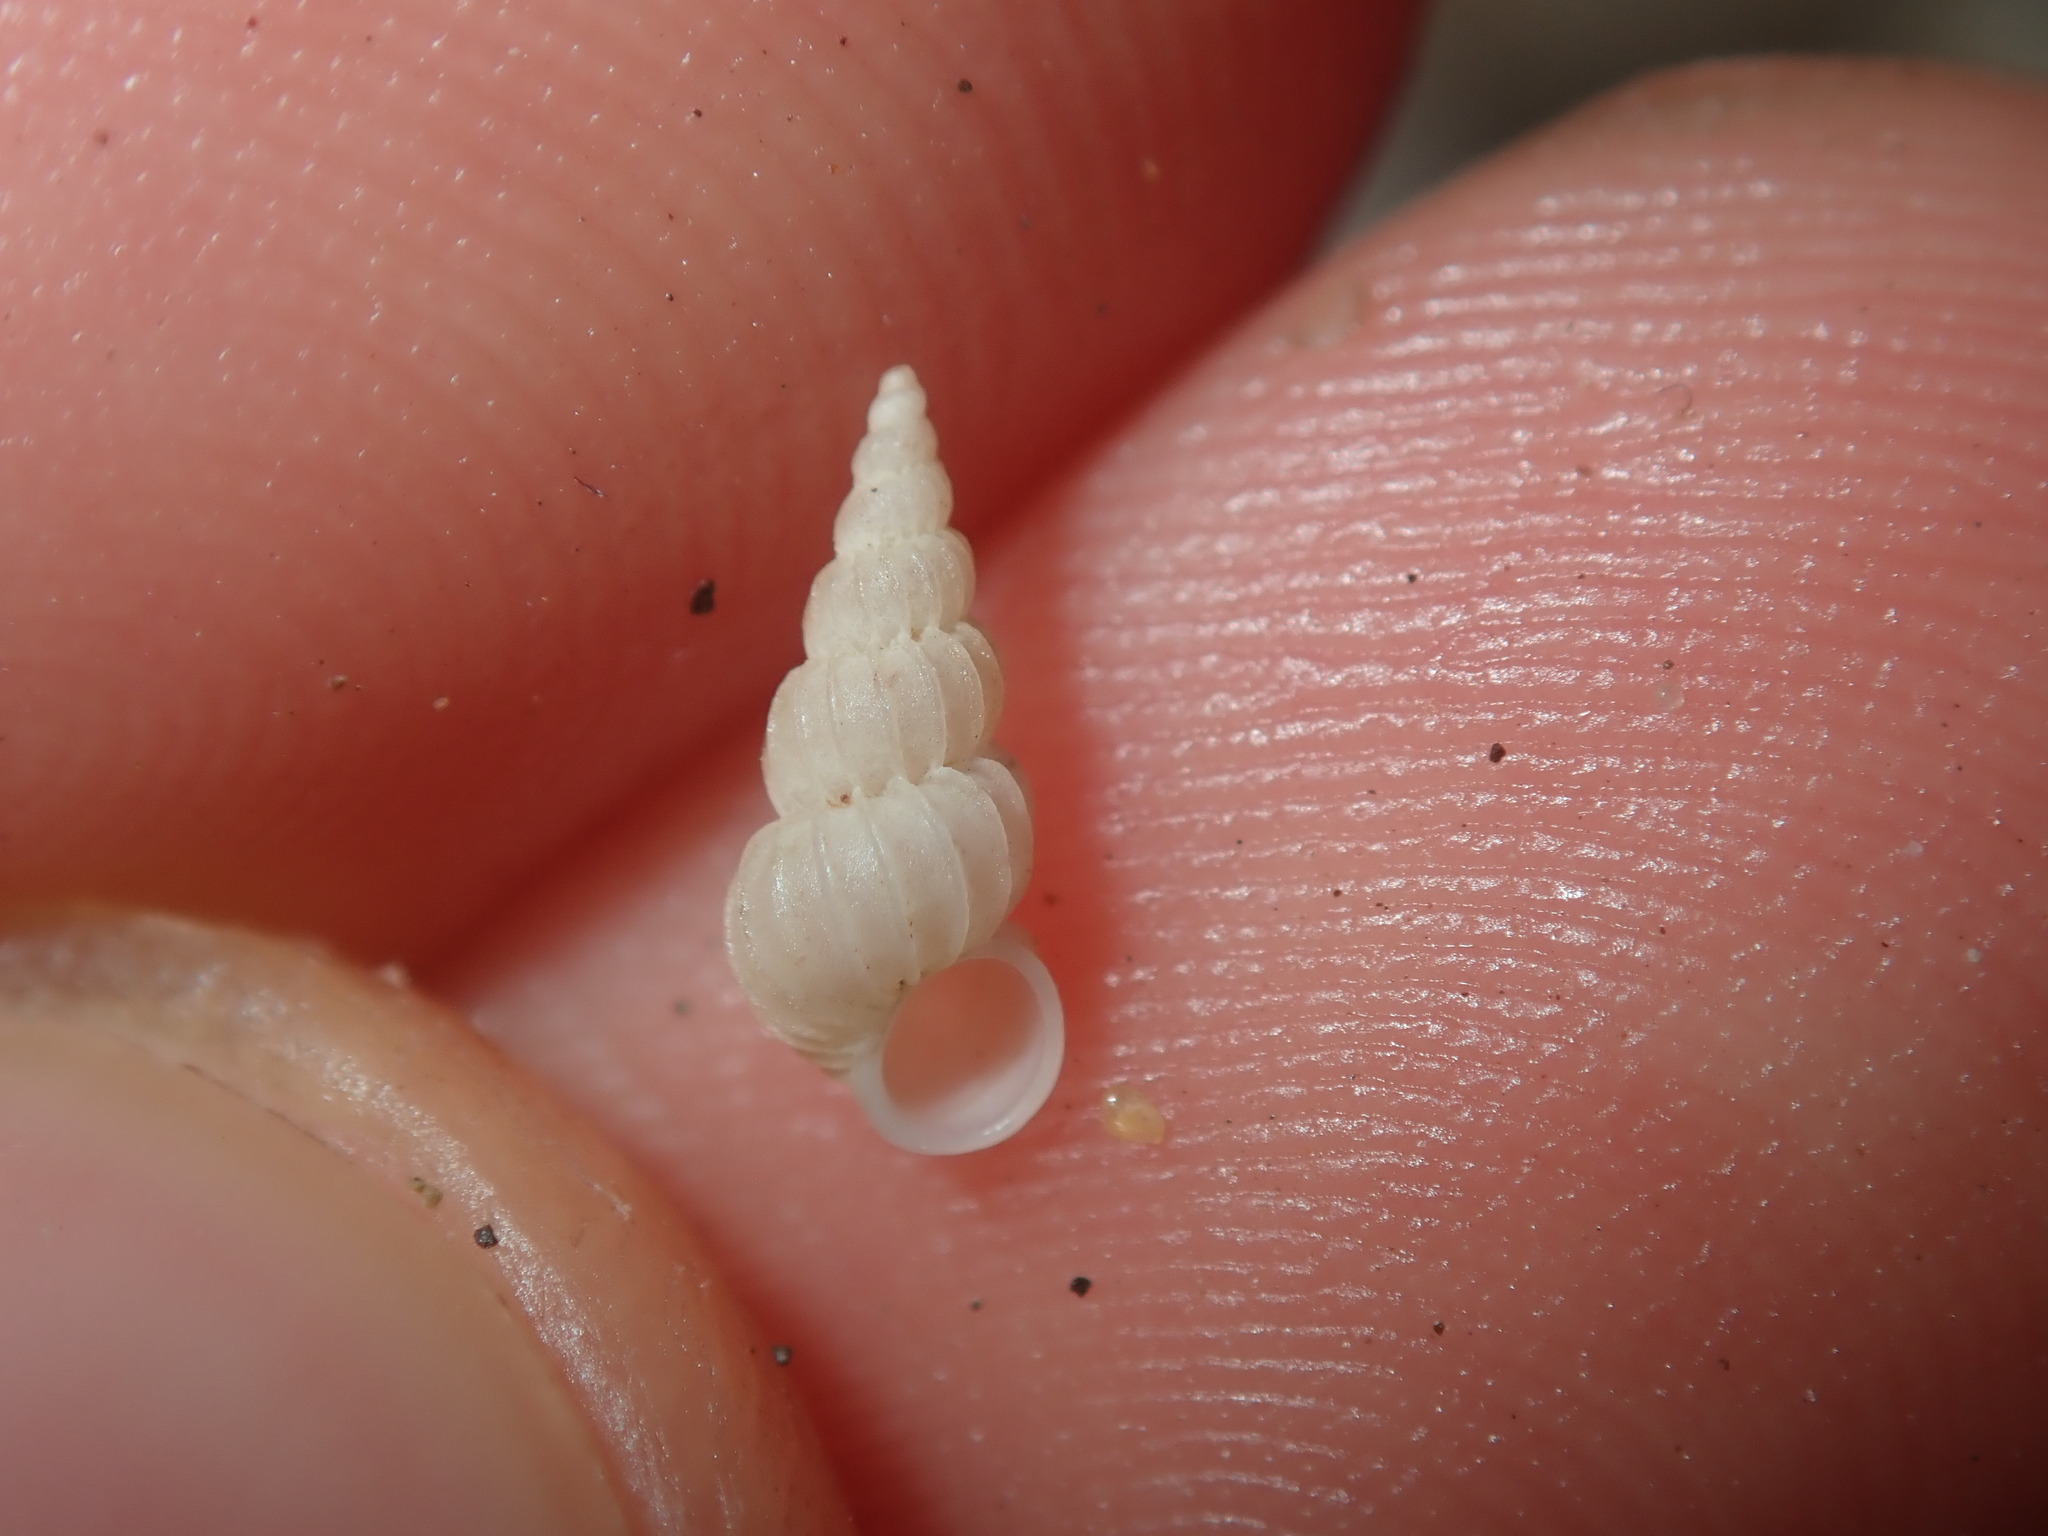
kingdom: Animalia
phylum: Mollusca
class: Gastropoda
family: Epitoniidae
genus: Epitonium
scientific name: Epitonium jukesianum
